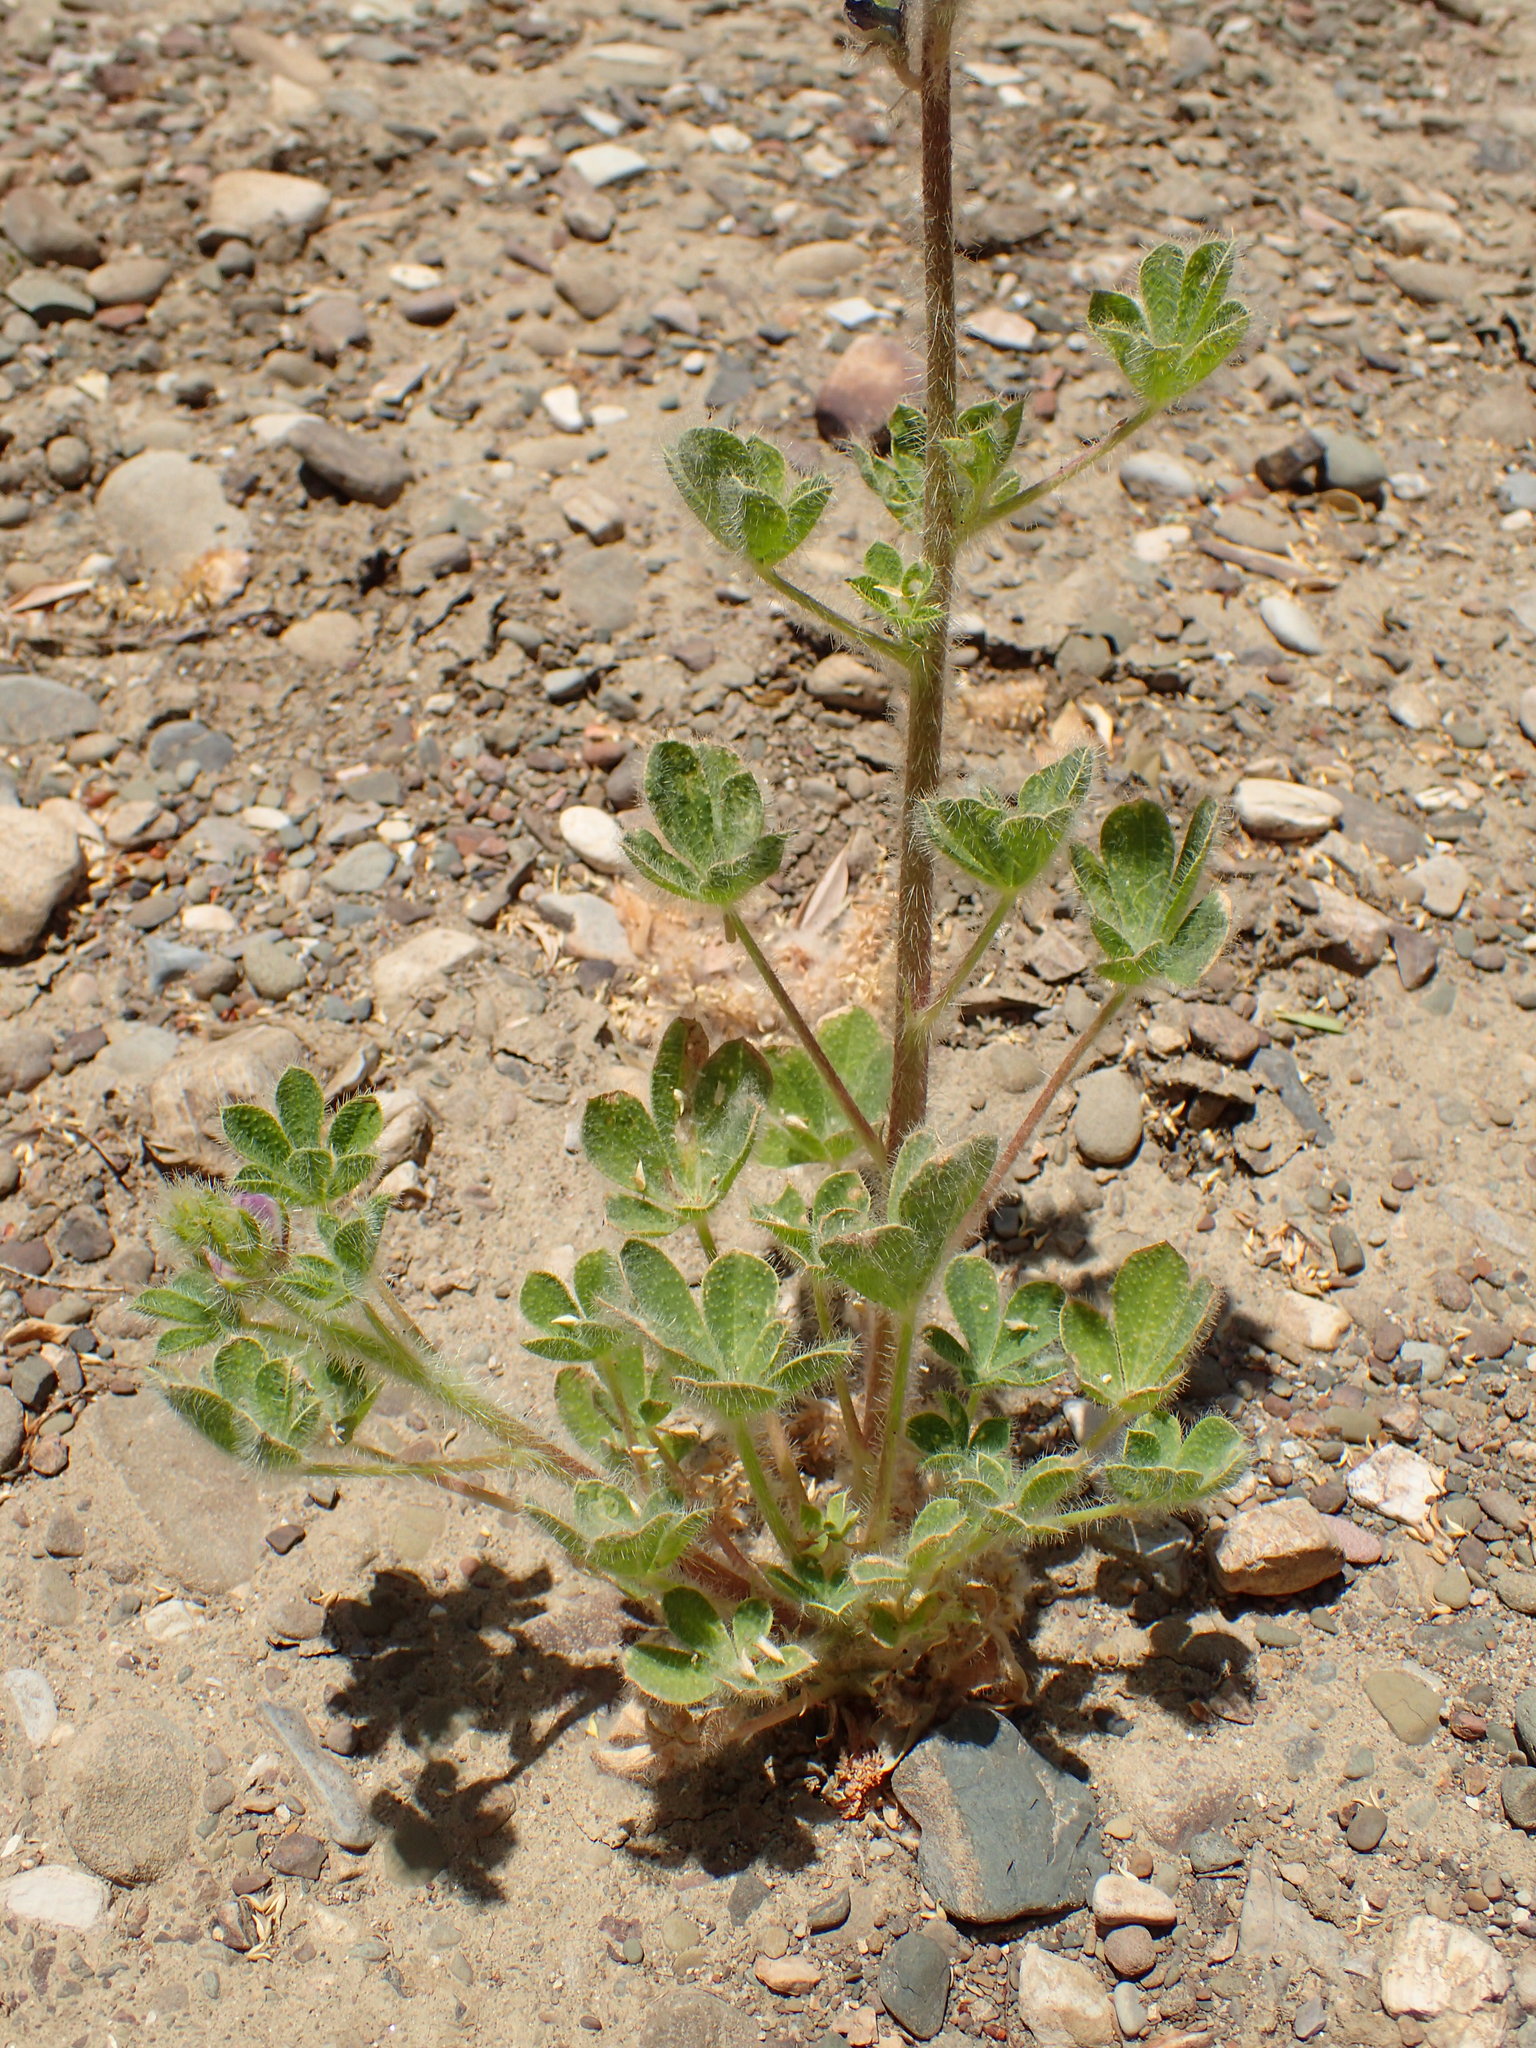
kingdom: Plantae
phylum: Tracheophyta
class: Magnoliopsida
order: Fabales
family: Fabaceae
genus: Lupinus
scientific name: Lupinus hirsutissimus
